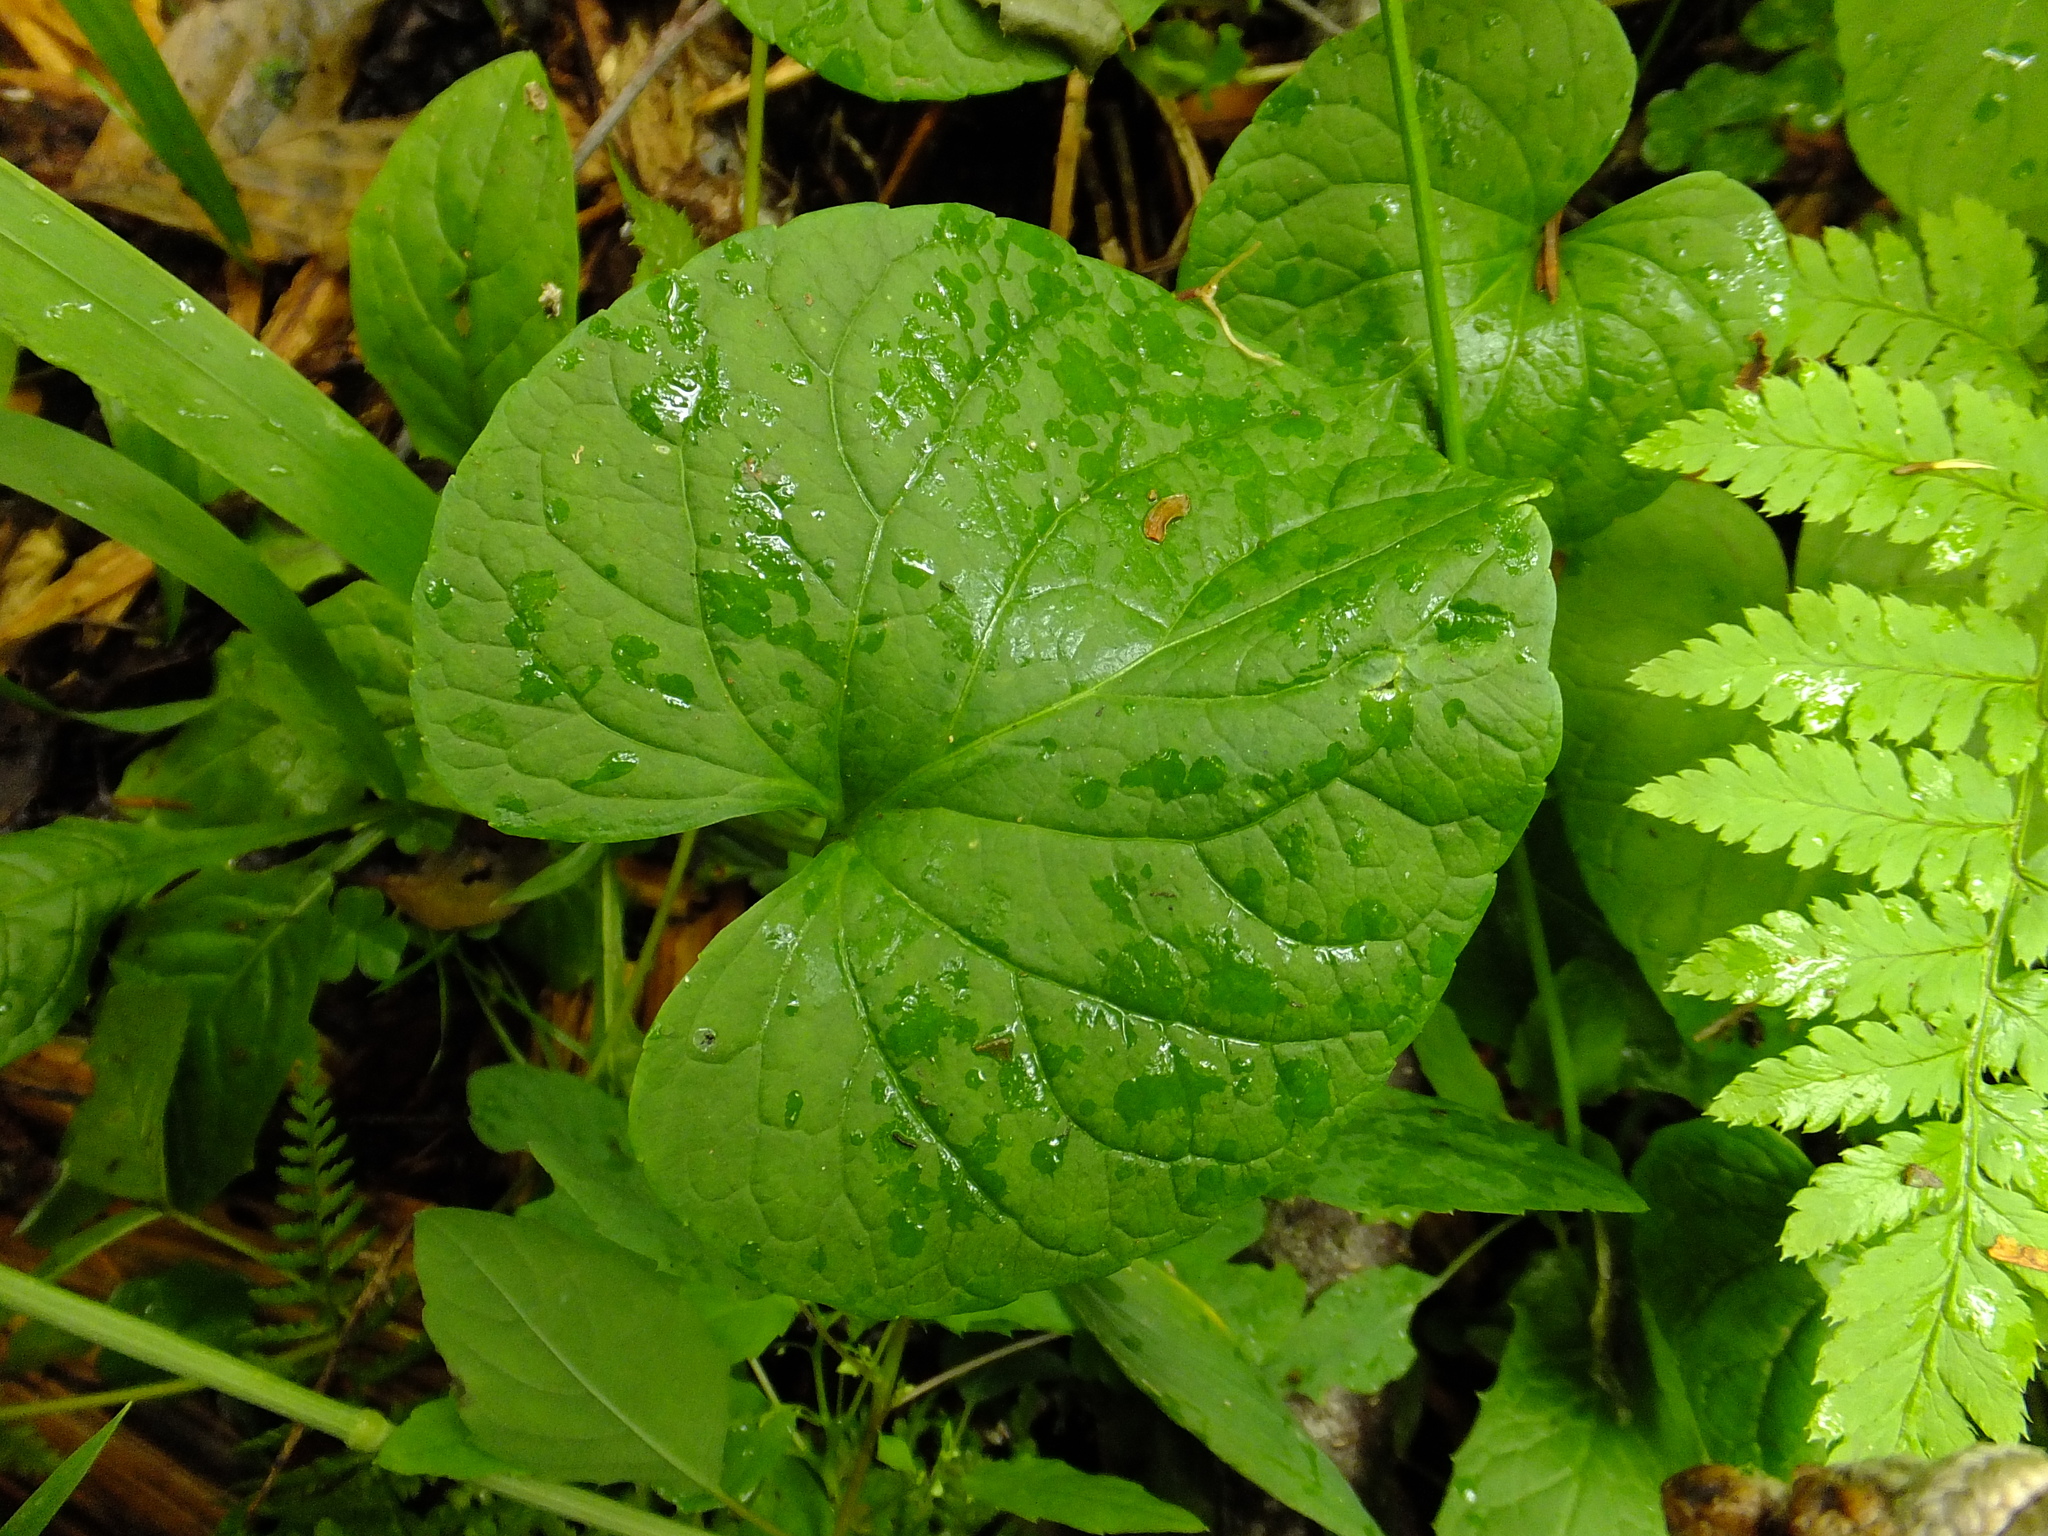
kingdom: Plantae
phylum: Tracheophyta
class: Magnoliopsida
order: Malpighiales
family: Violaceae
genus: Viola
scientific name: Viola epipsila
